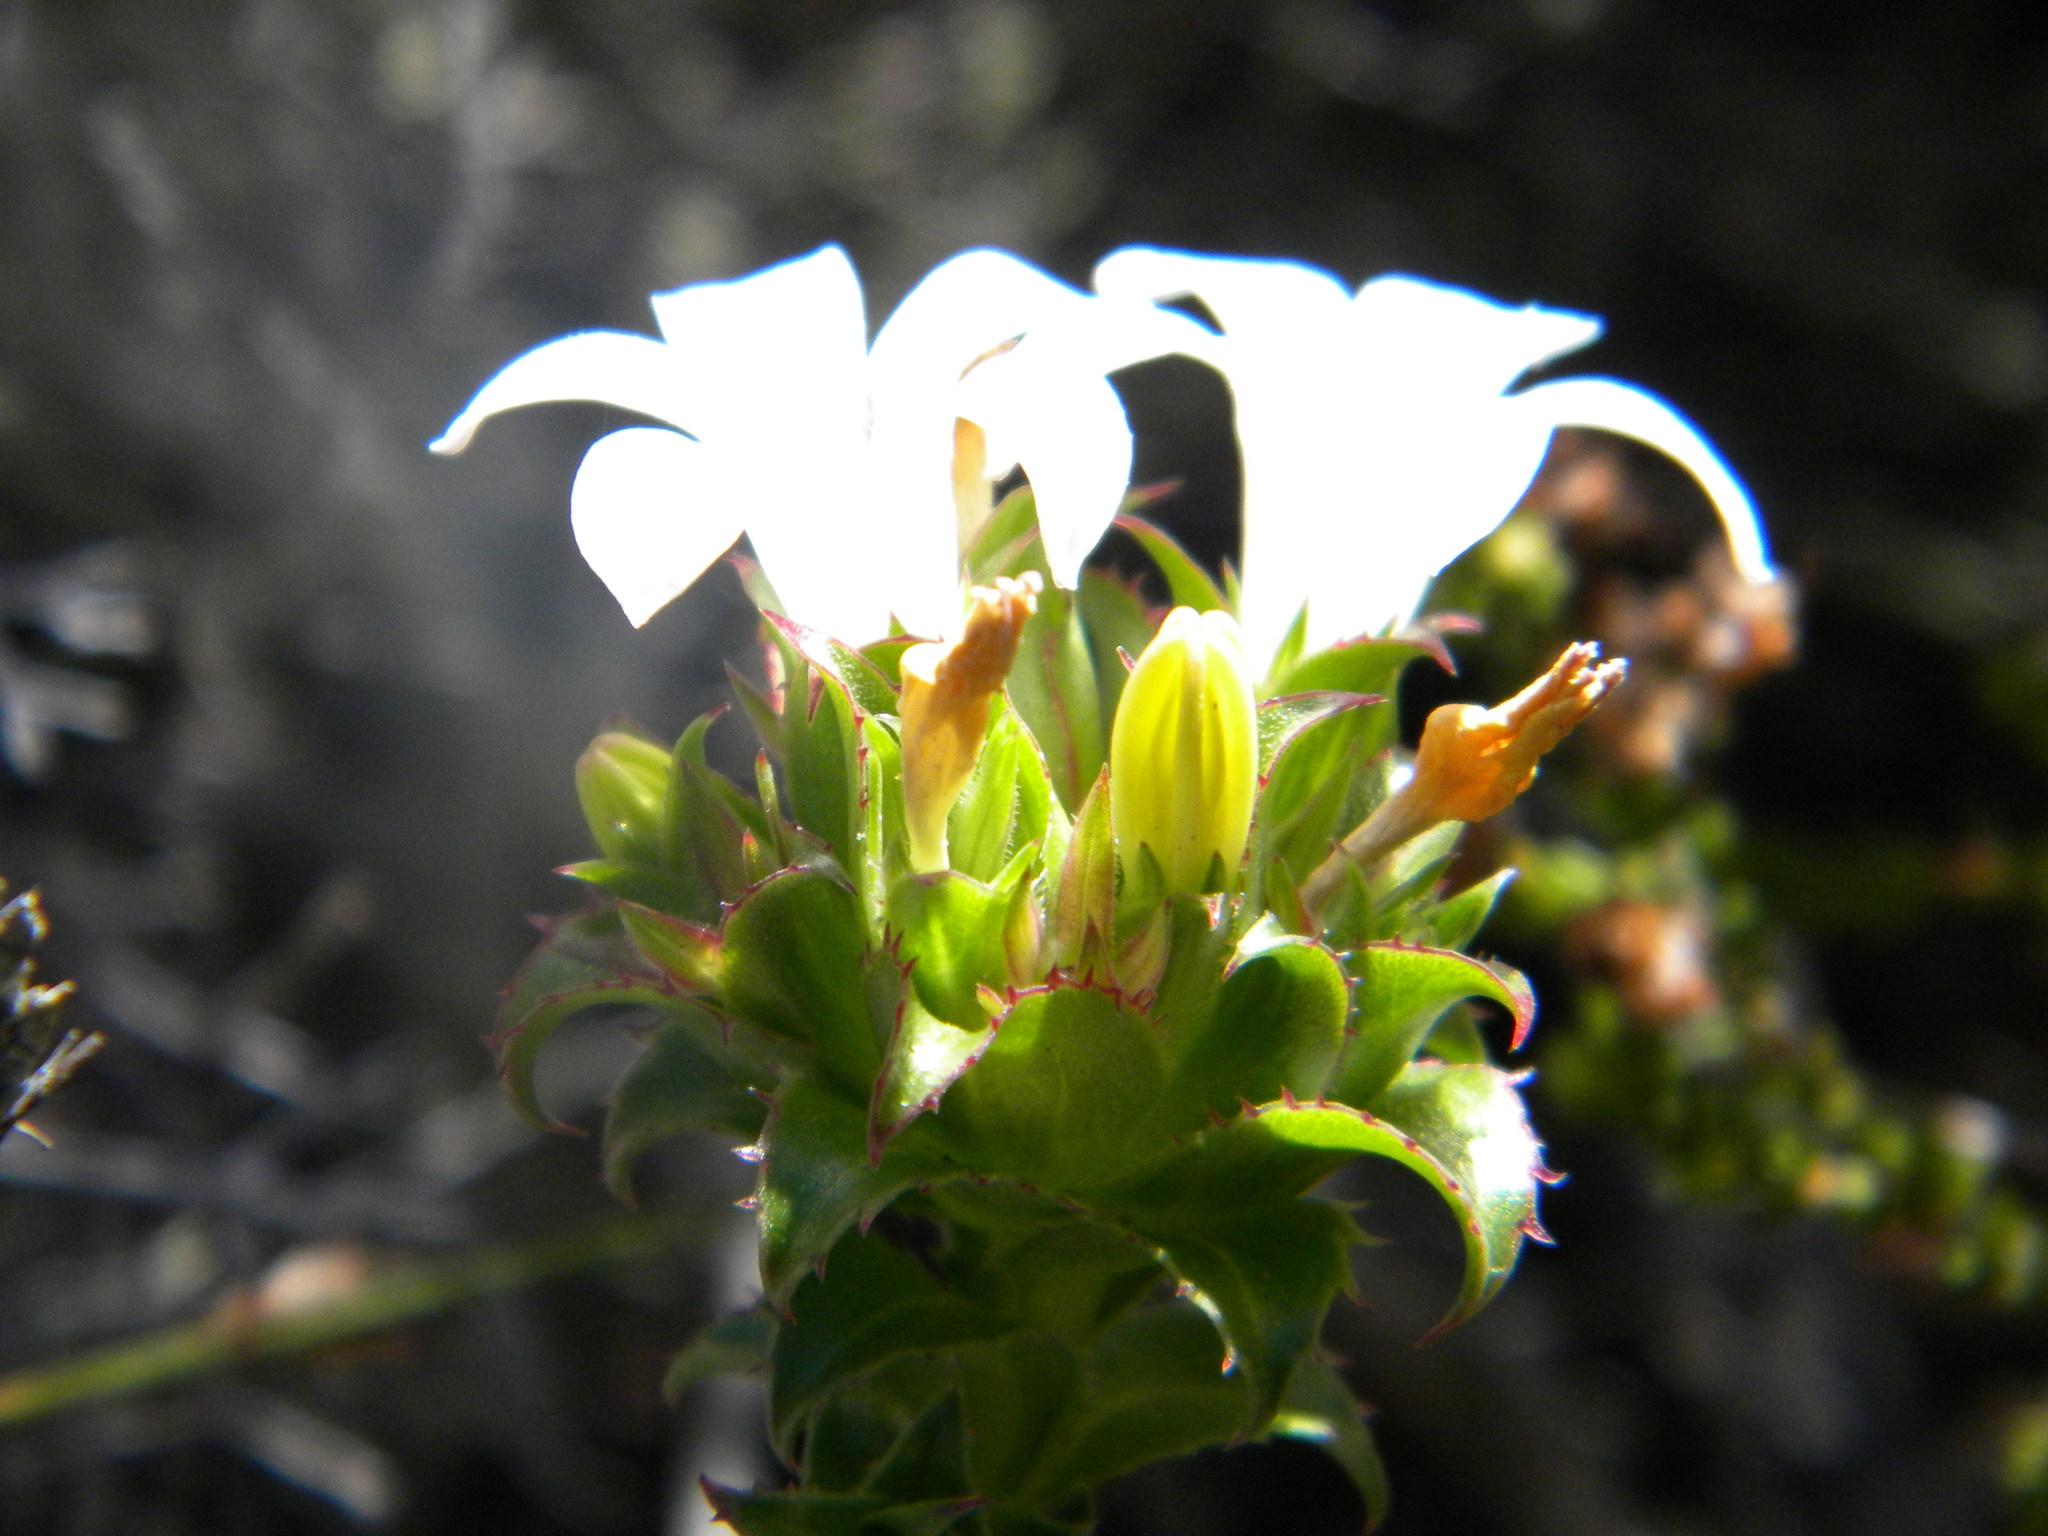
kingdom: Plantae
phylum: Tracheophyta
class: Magnoliopsida
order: Asterales
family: Campanulaceae
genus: Roella
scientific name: Roella amplexicaulis
